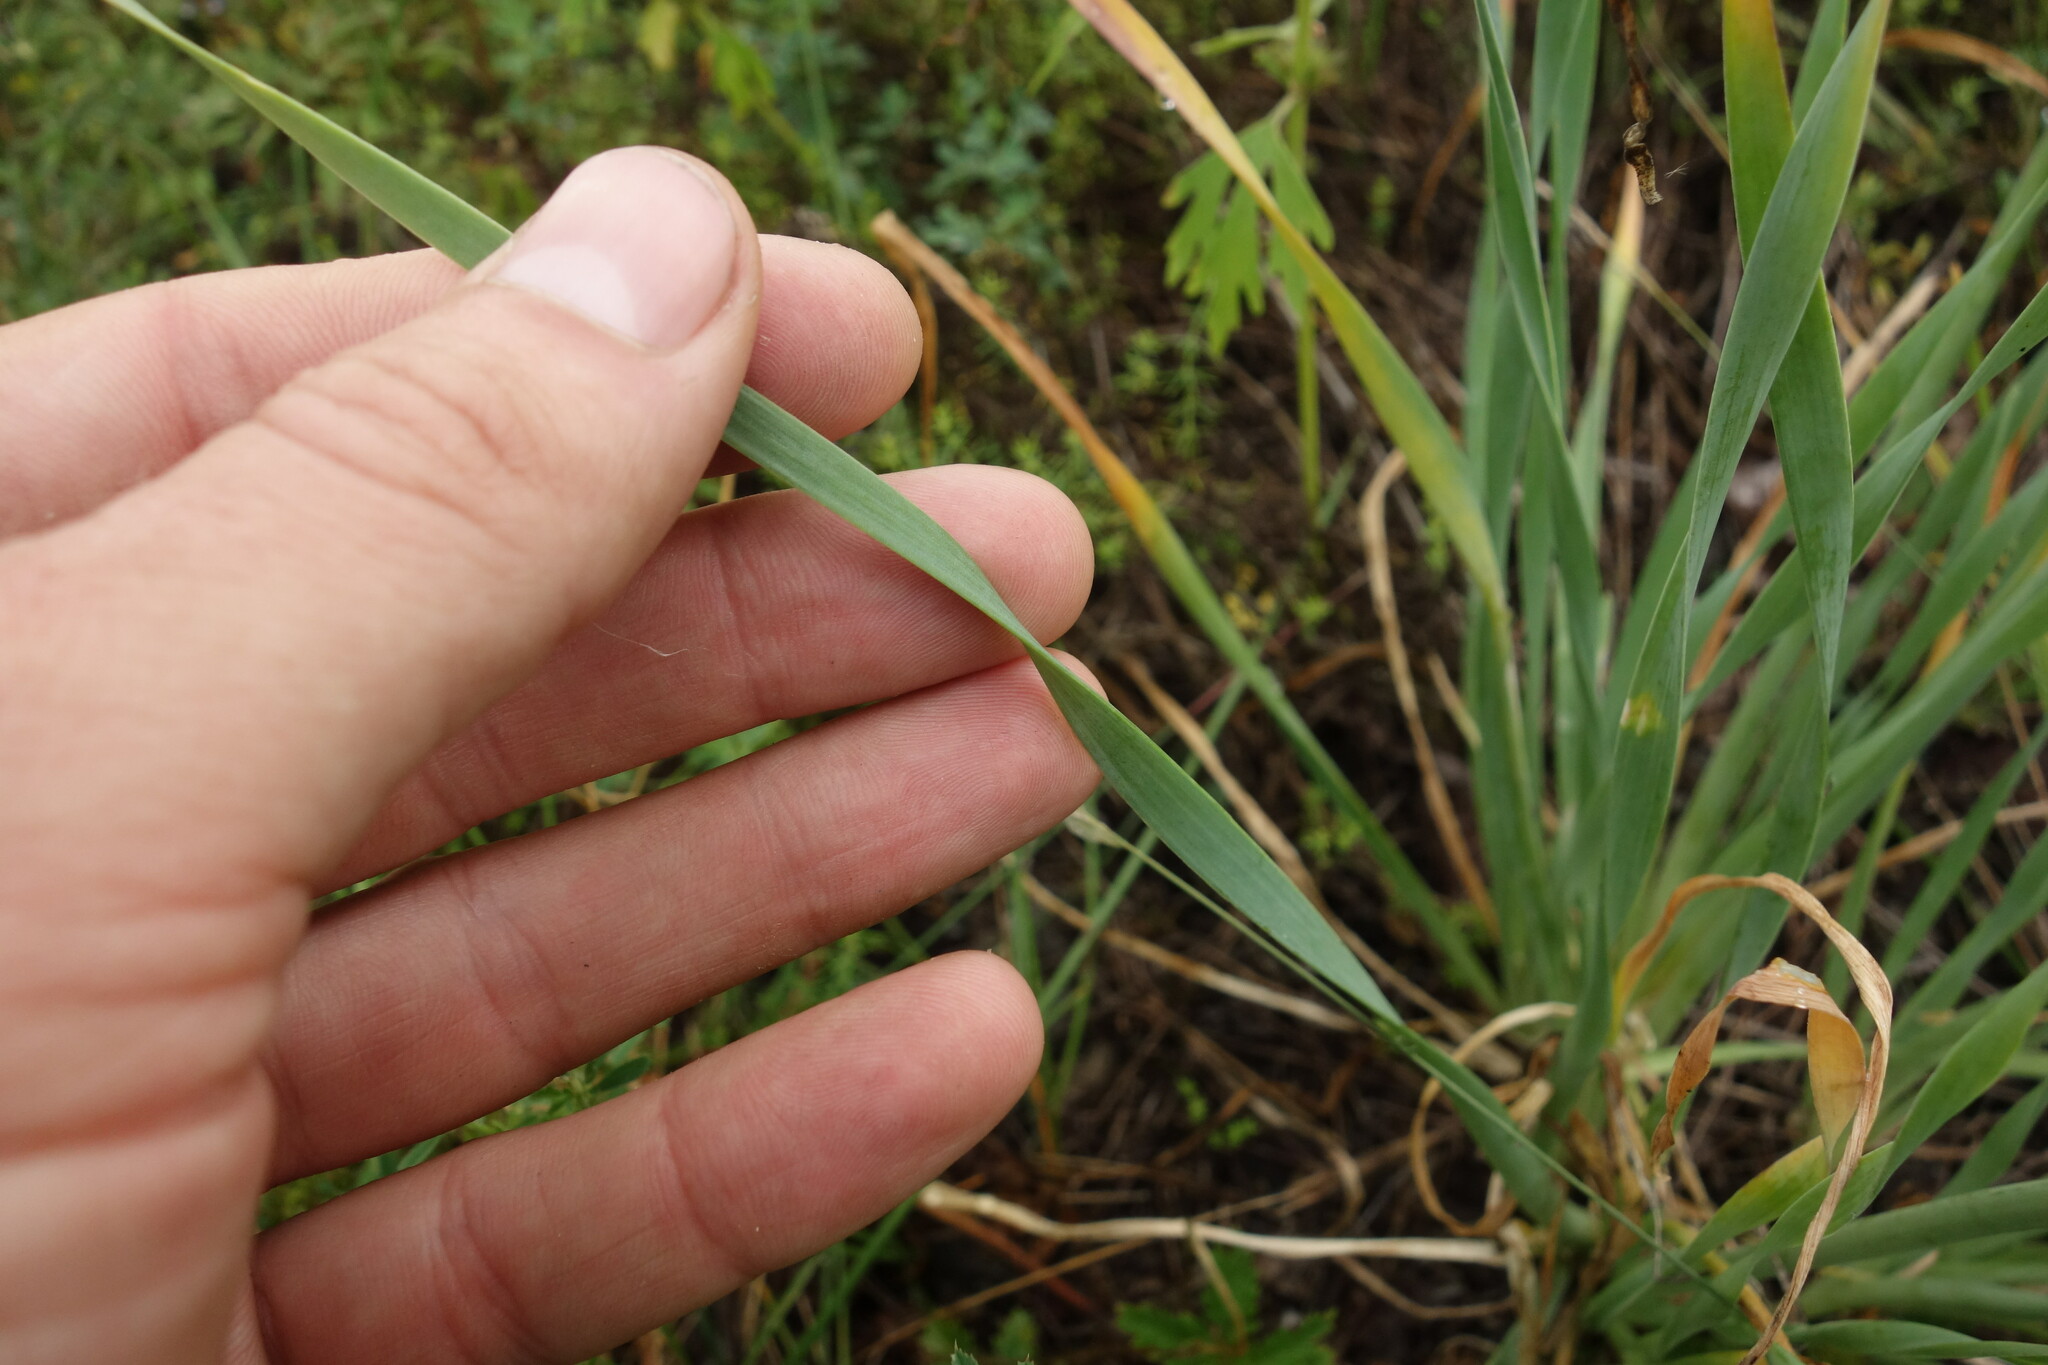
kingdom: Plantae
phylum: Tracheophyta
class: Liliopsida
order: Asparagales
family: Amaryllidaceae
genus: Allium
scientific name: Allium senescens
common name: German garlic
